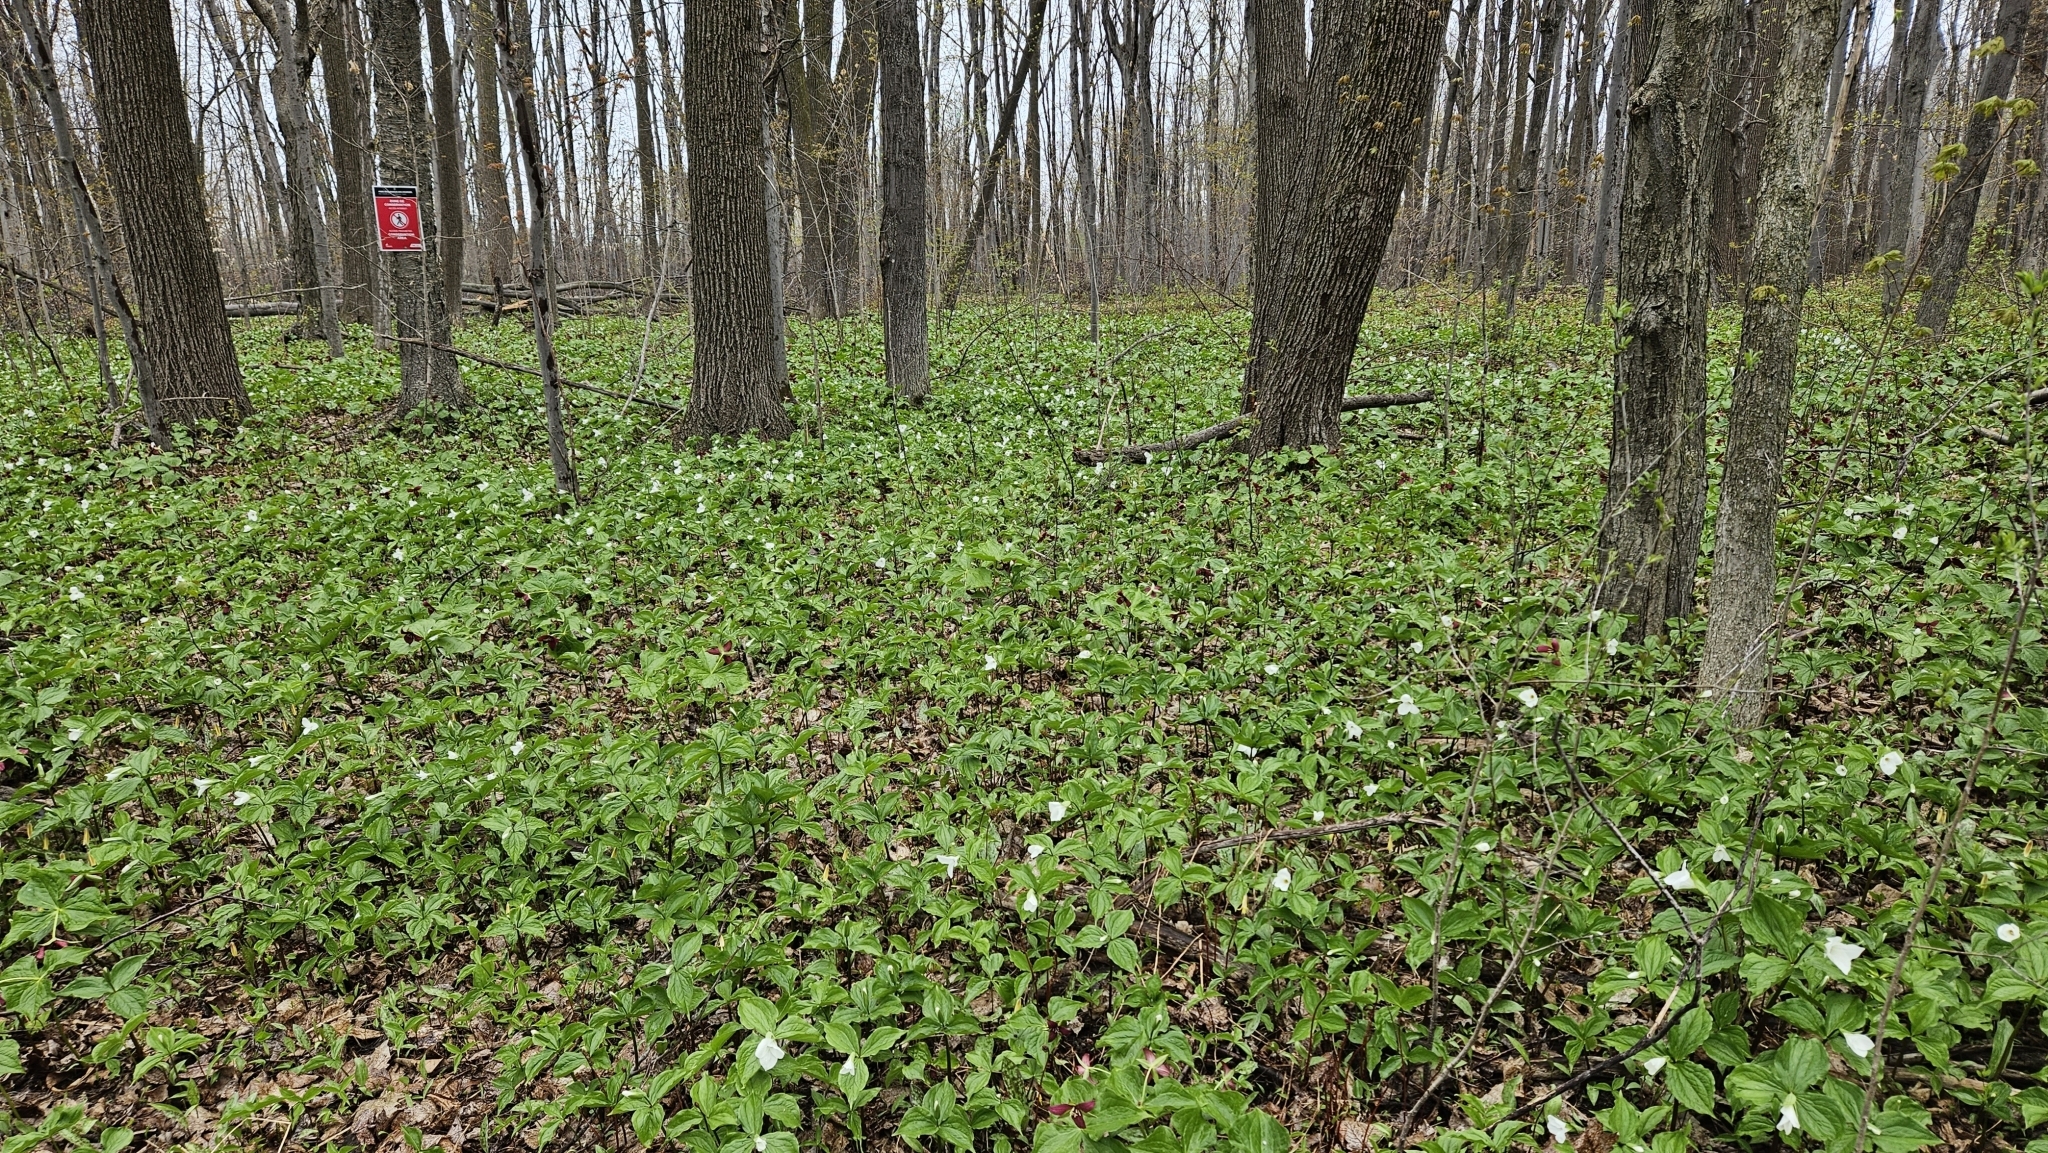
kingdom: Plantae
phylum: Tracheophyta
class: Liliopsida
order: Liliales
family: Melanthiaceae
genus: Trillium
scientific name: Trillium erectum
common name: Purple trillium
